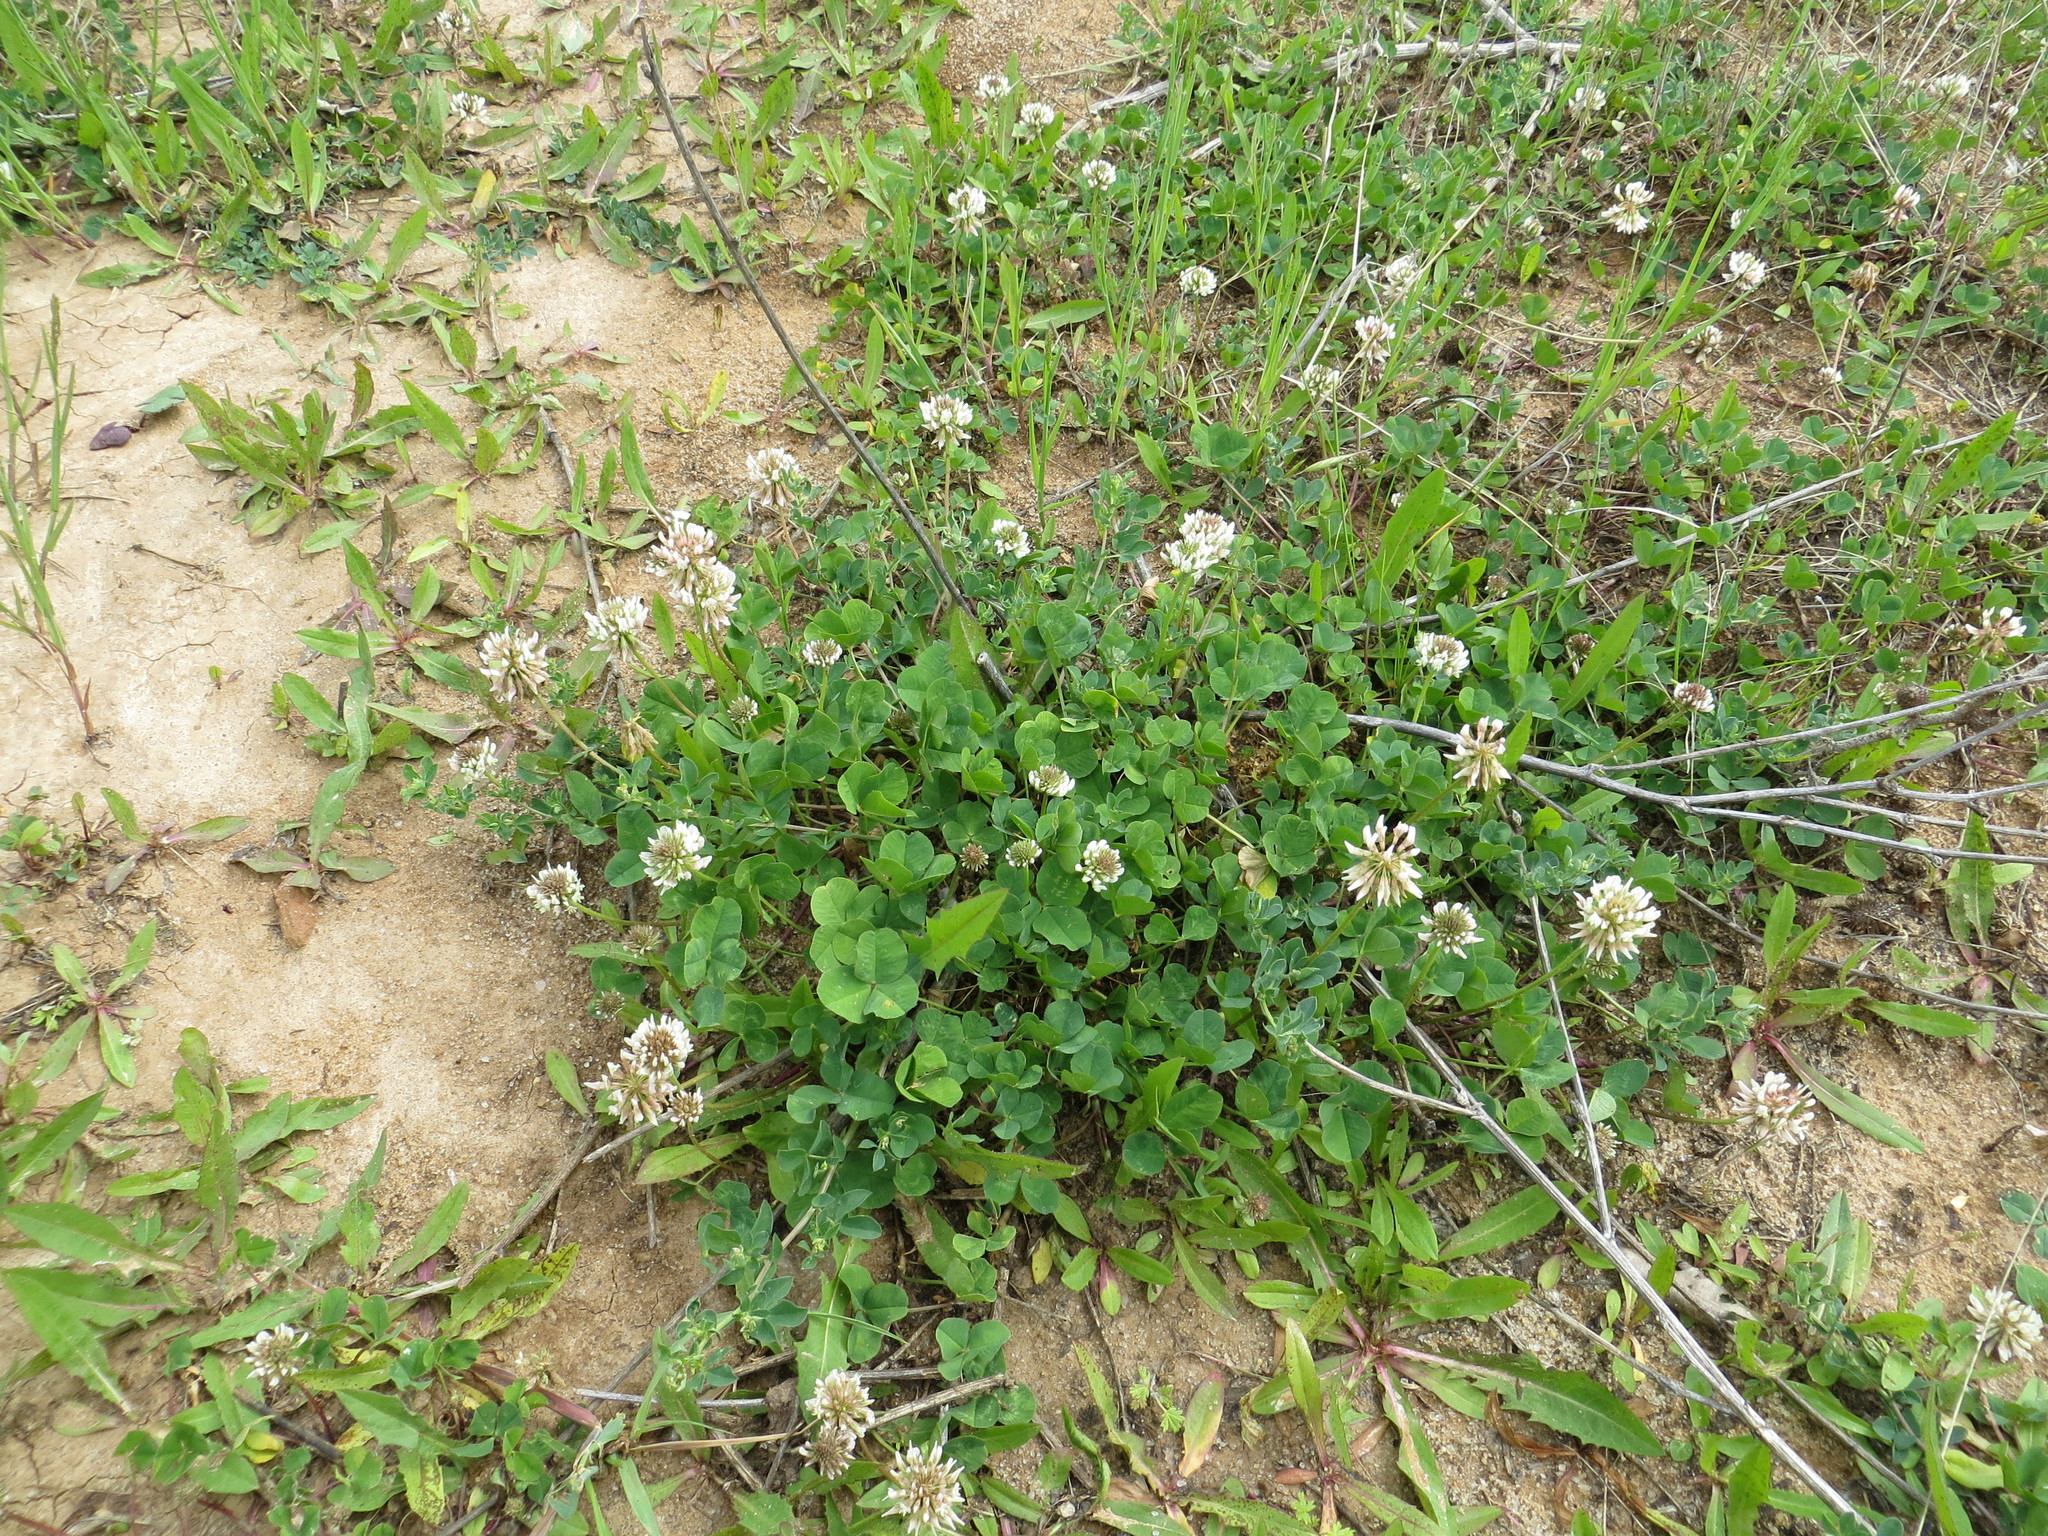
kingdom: Plantae
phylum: Tracheophyta
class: Magnoliopsida
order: Fabales
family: Fabaceae
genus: Trifolium
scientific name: Trifolium repens
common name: White clover
